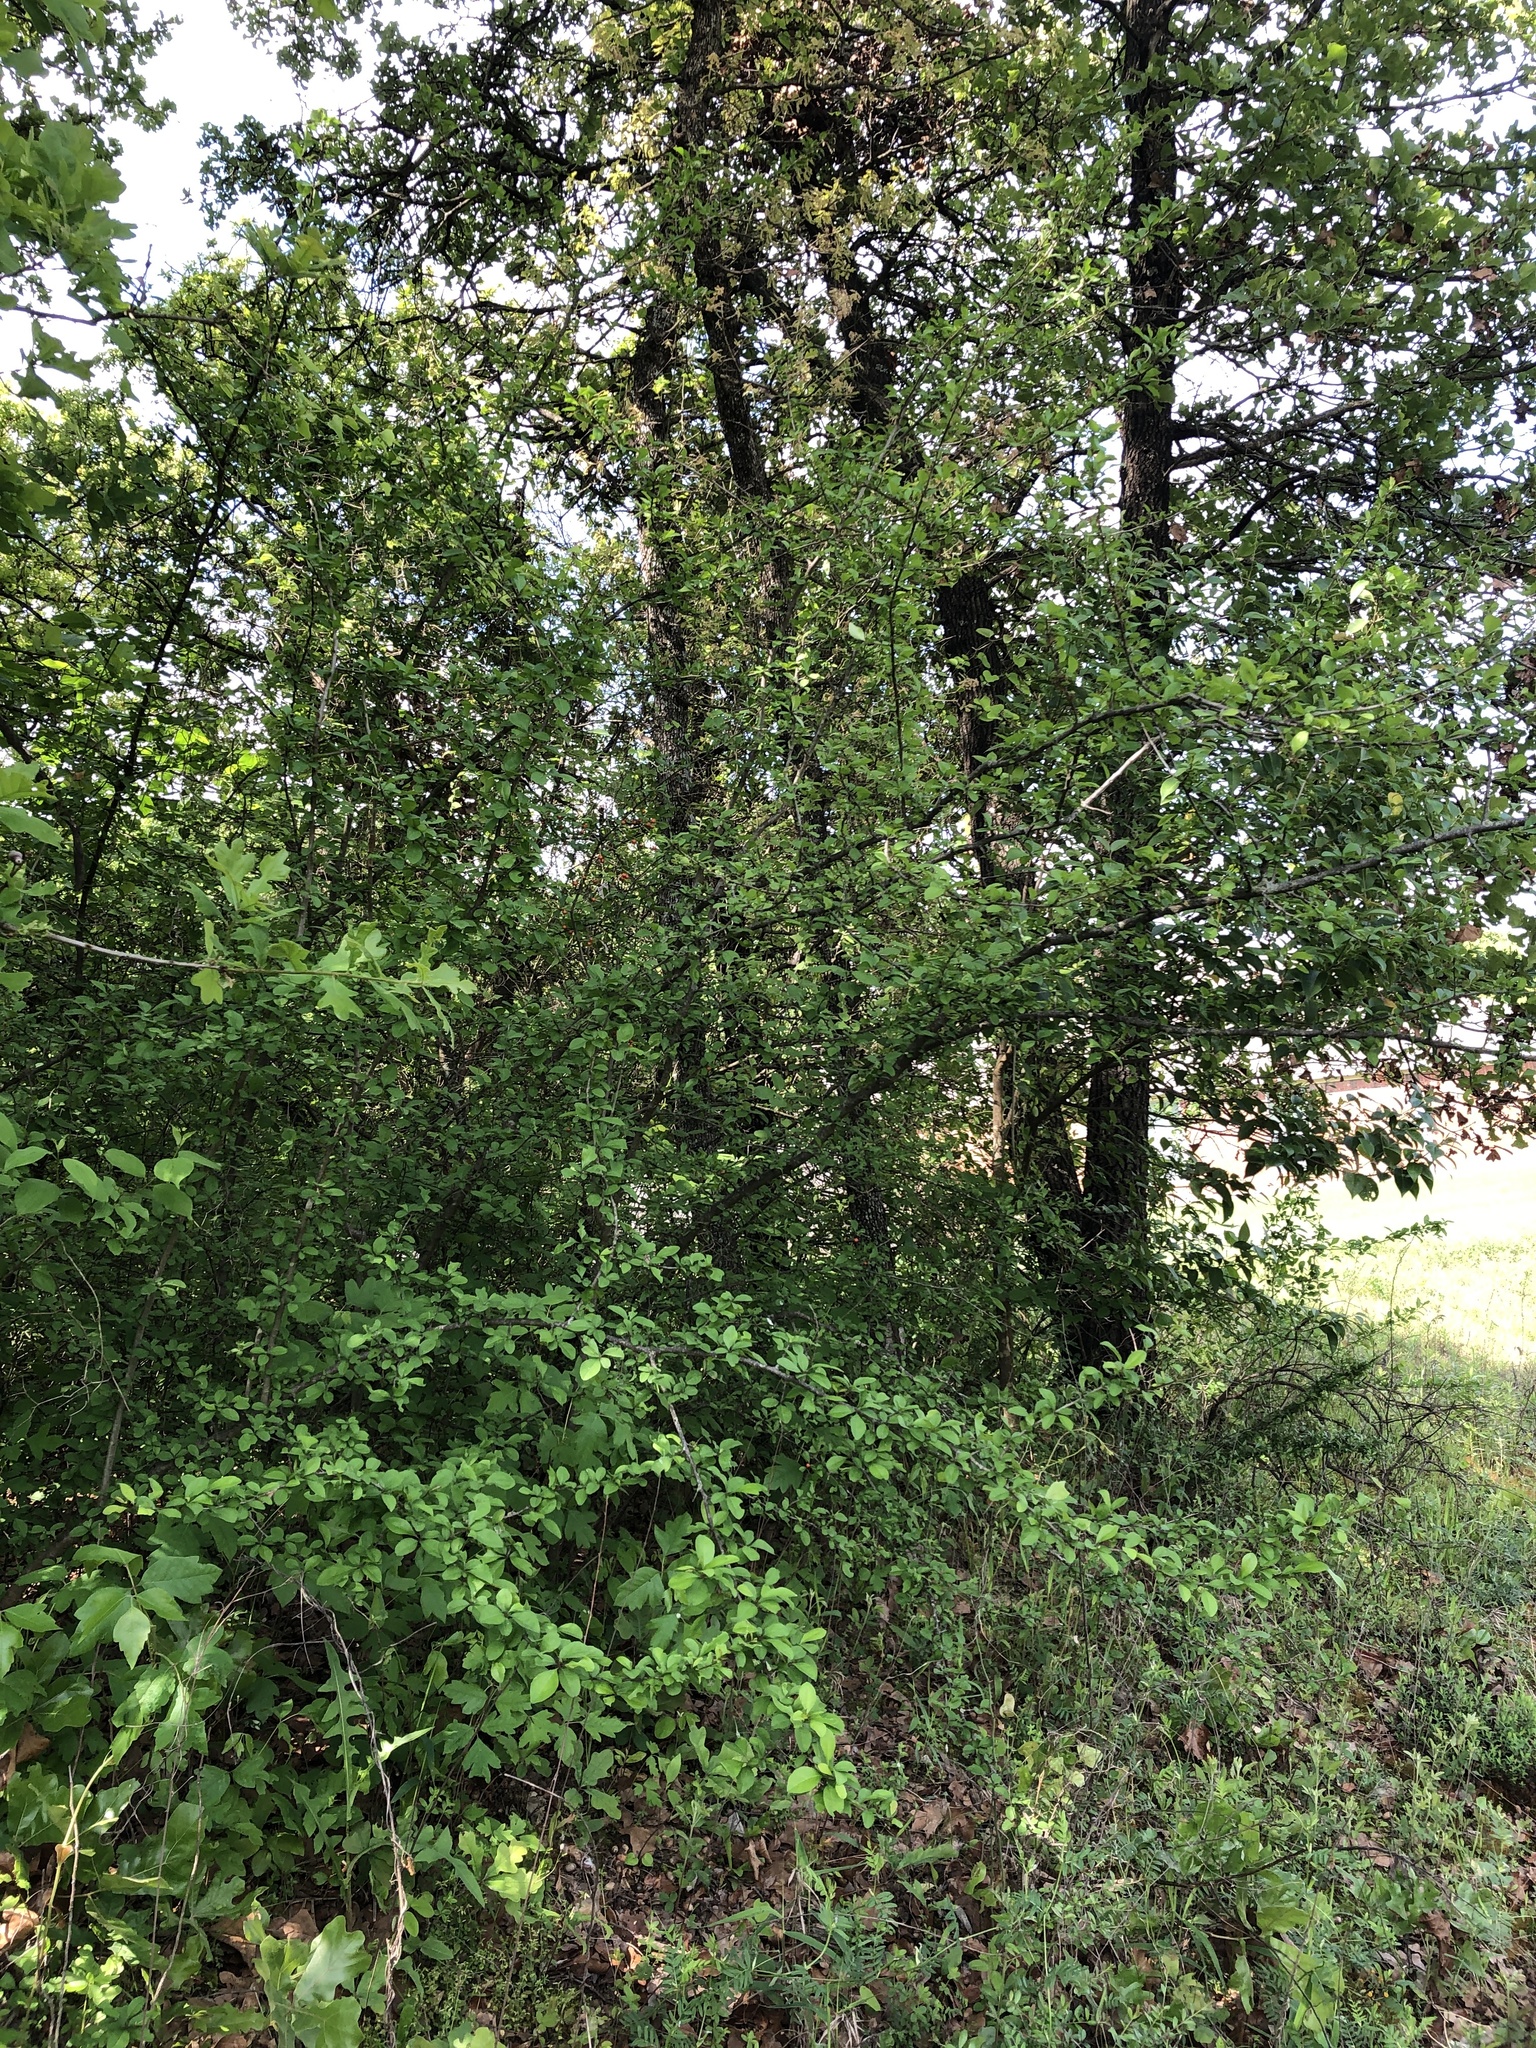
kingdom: Plantae
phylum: Tracheophyta
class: Magnoliopsida
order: Aquifoliales
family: Aquifoliaceae
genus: Ilex
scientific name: Ilex decidua
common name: Possum-haw
